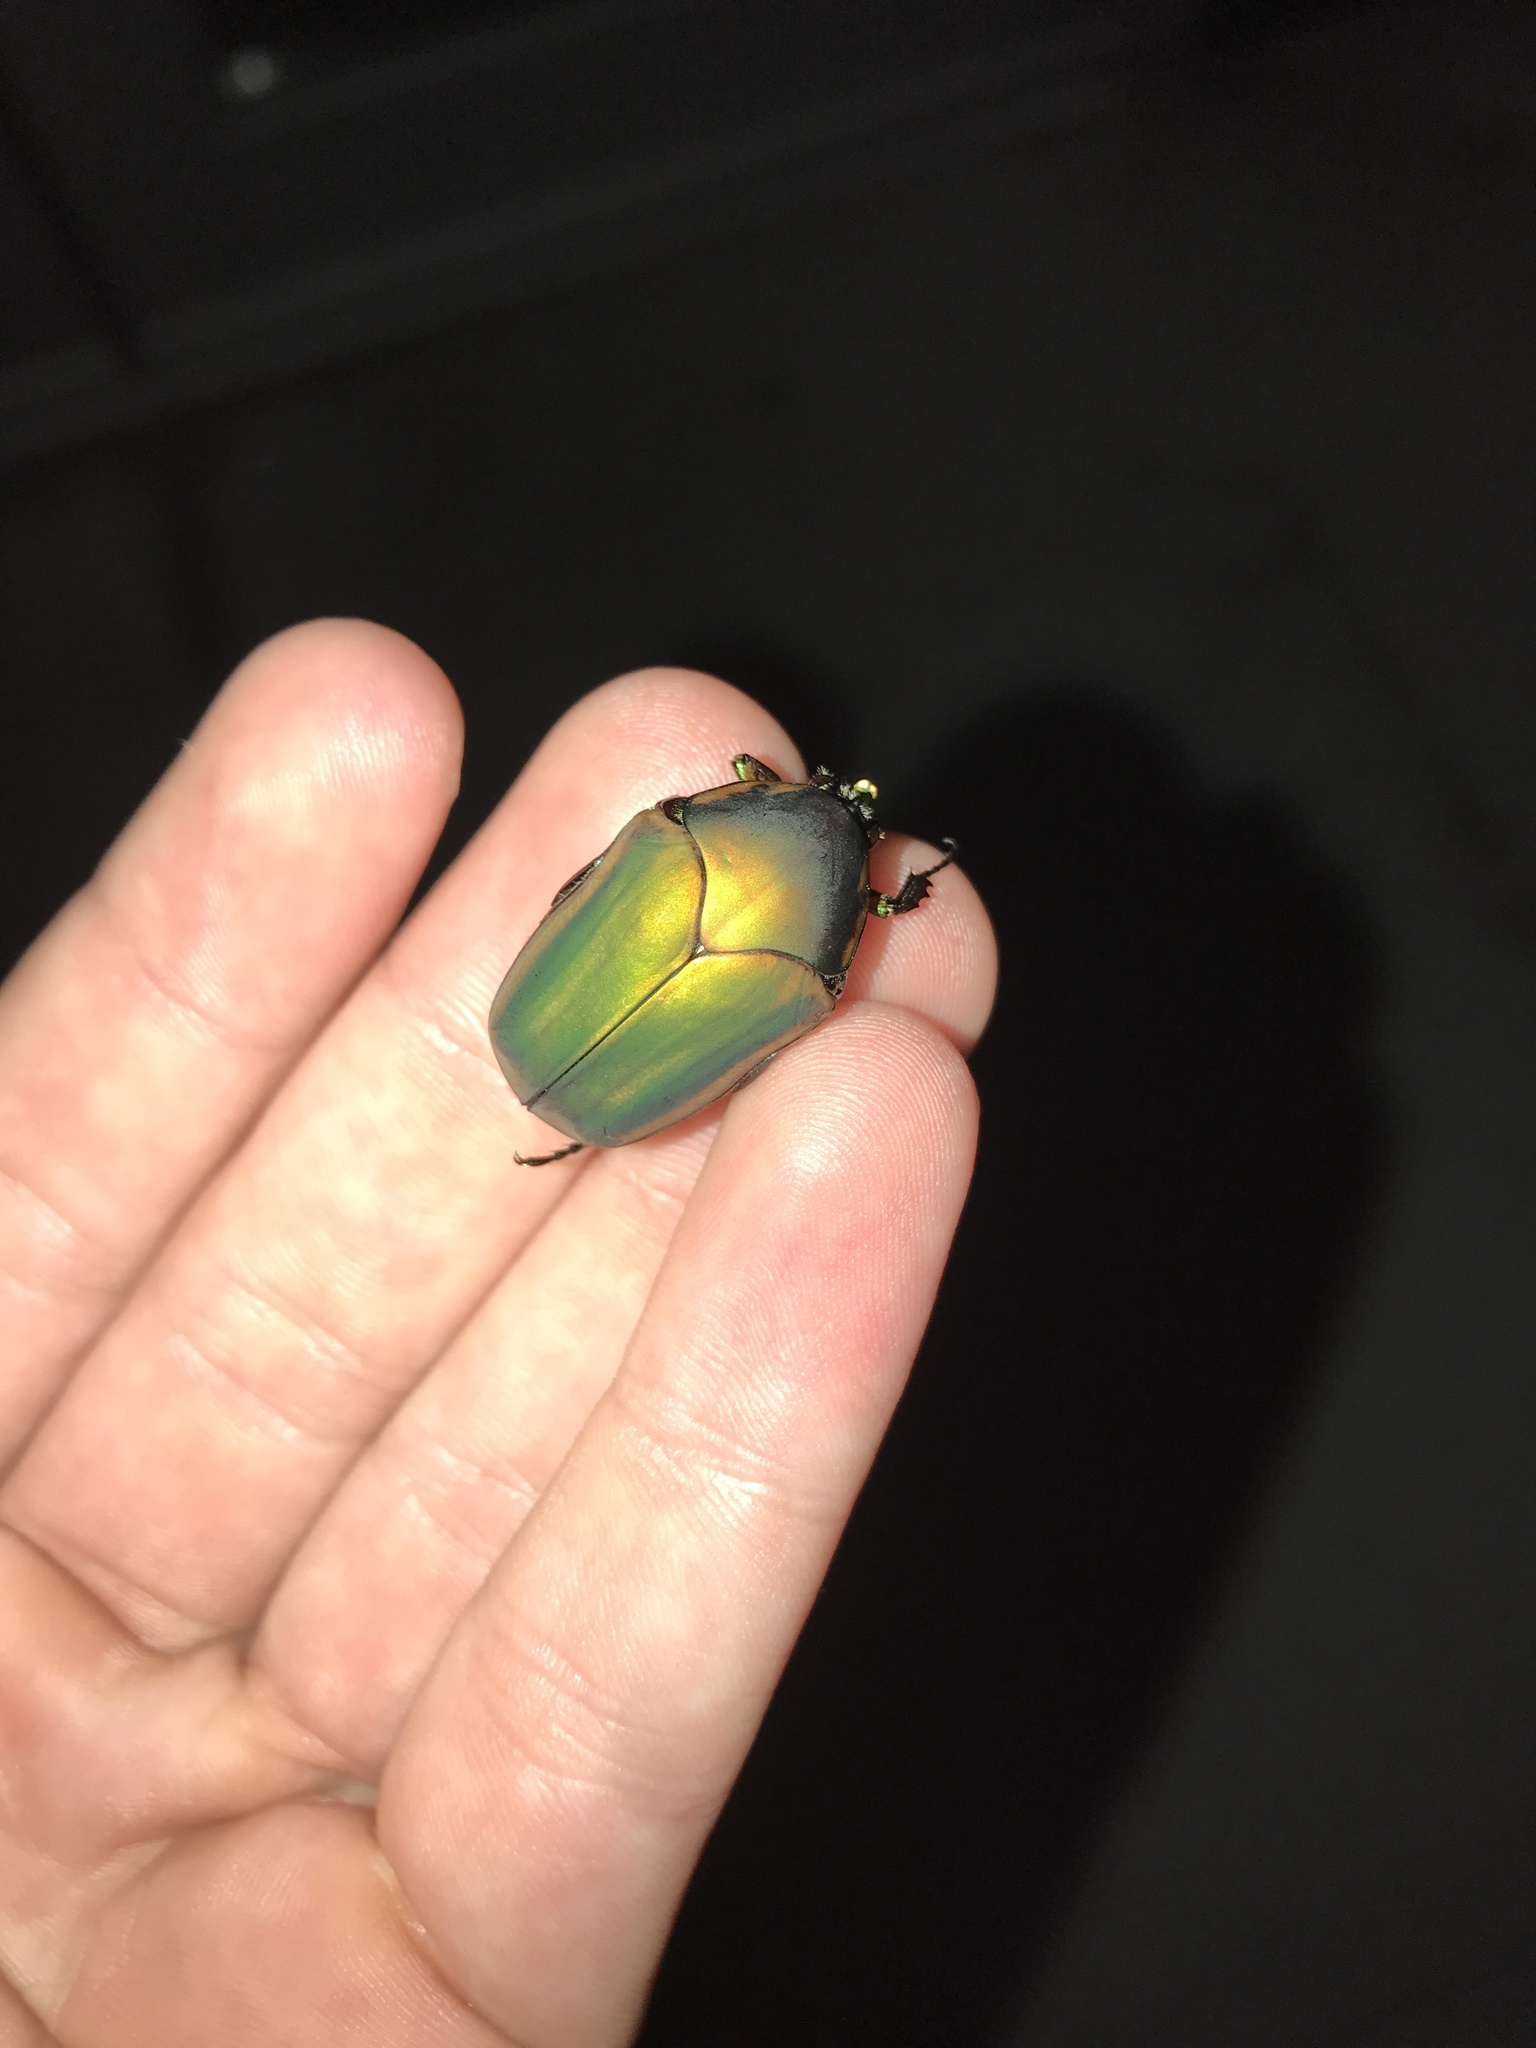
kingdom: Animalia
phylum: Arthropoda
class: Insecta
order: Coleoptera
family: Scarabaeidae
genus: Cotinis
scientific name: Cotinis nitida
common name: Common green june beetle
